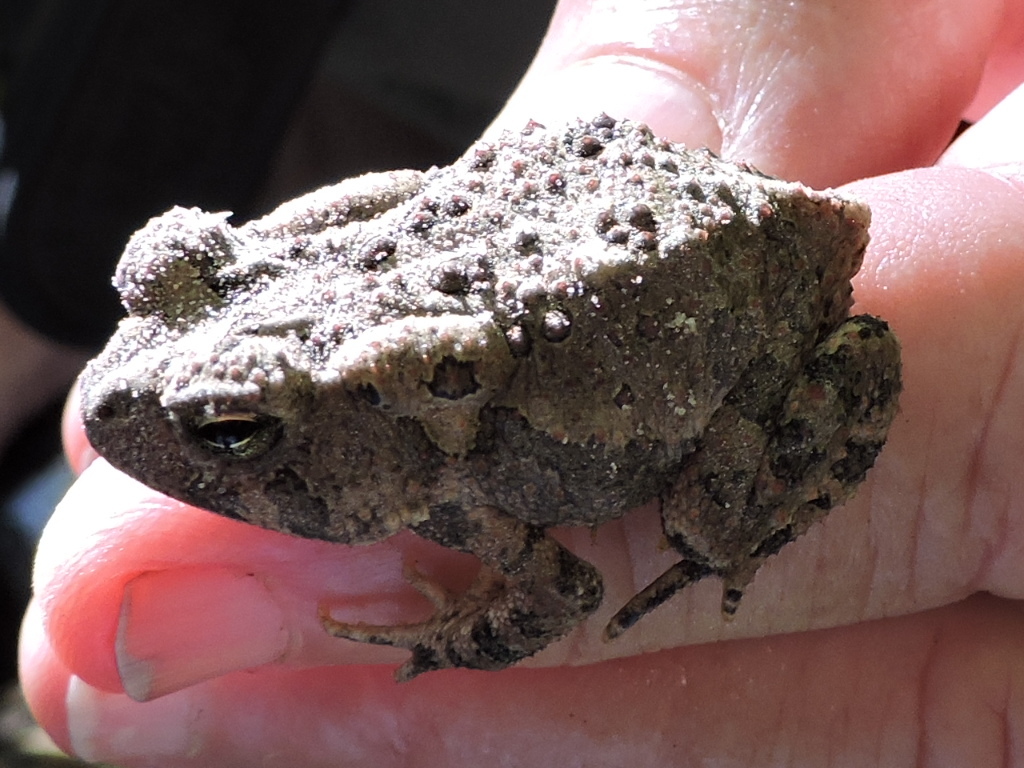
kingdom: Animalia
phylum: Chordata
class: Amphibia
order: Anura
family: Bufonidae
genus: Anaxyrus
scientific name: Anaxyrus fowleri
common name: Fowler's toad
